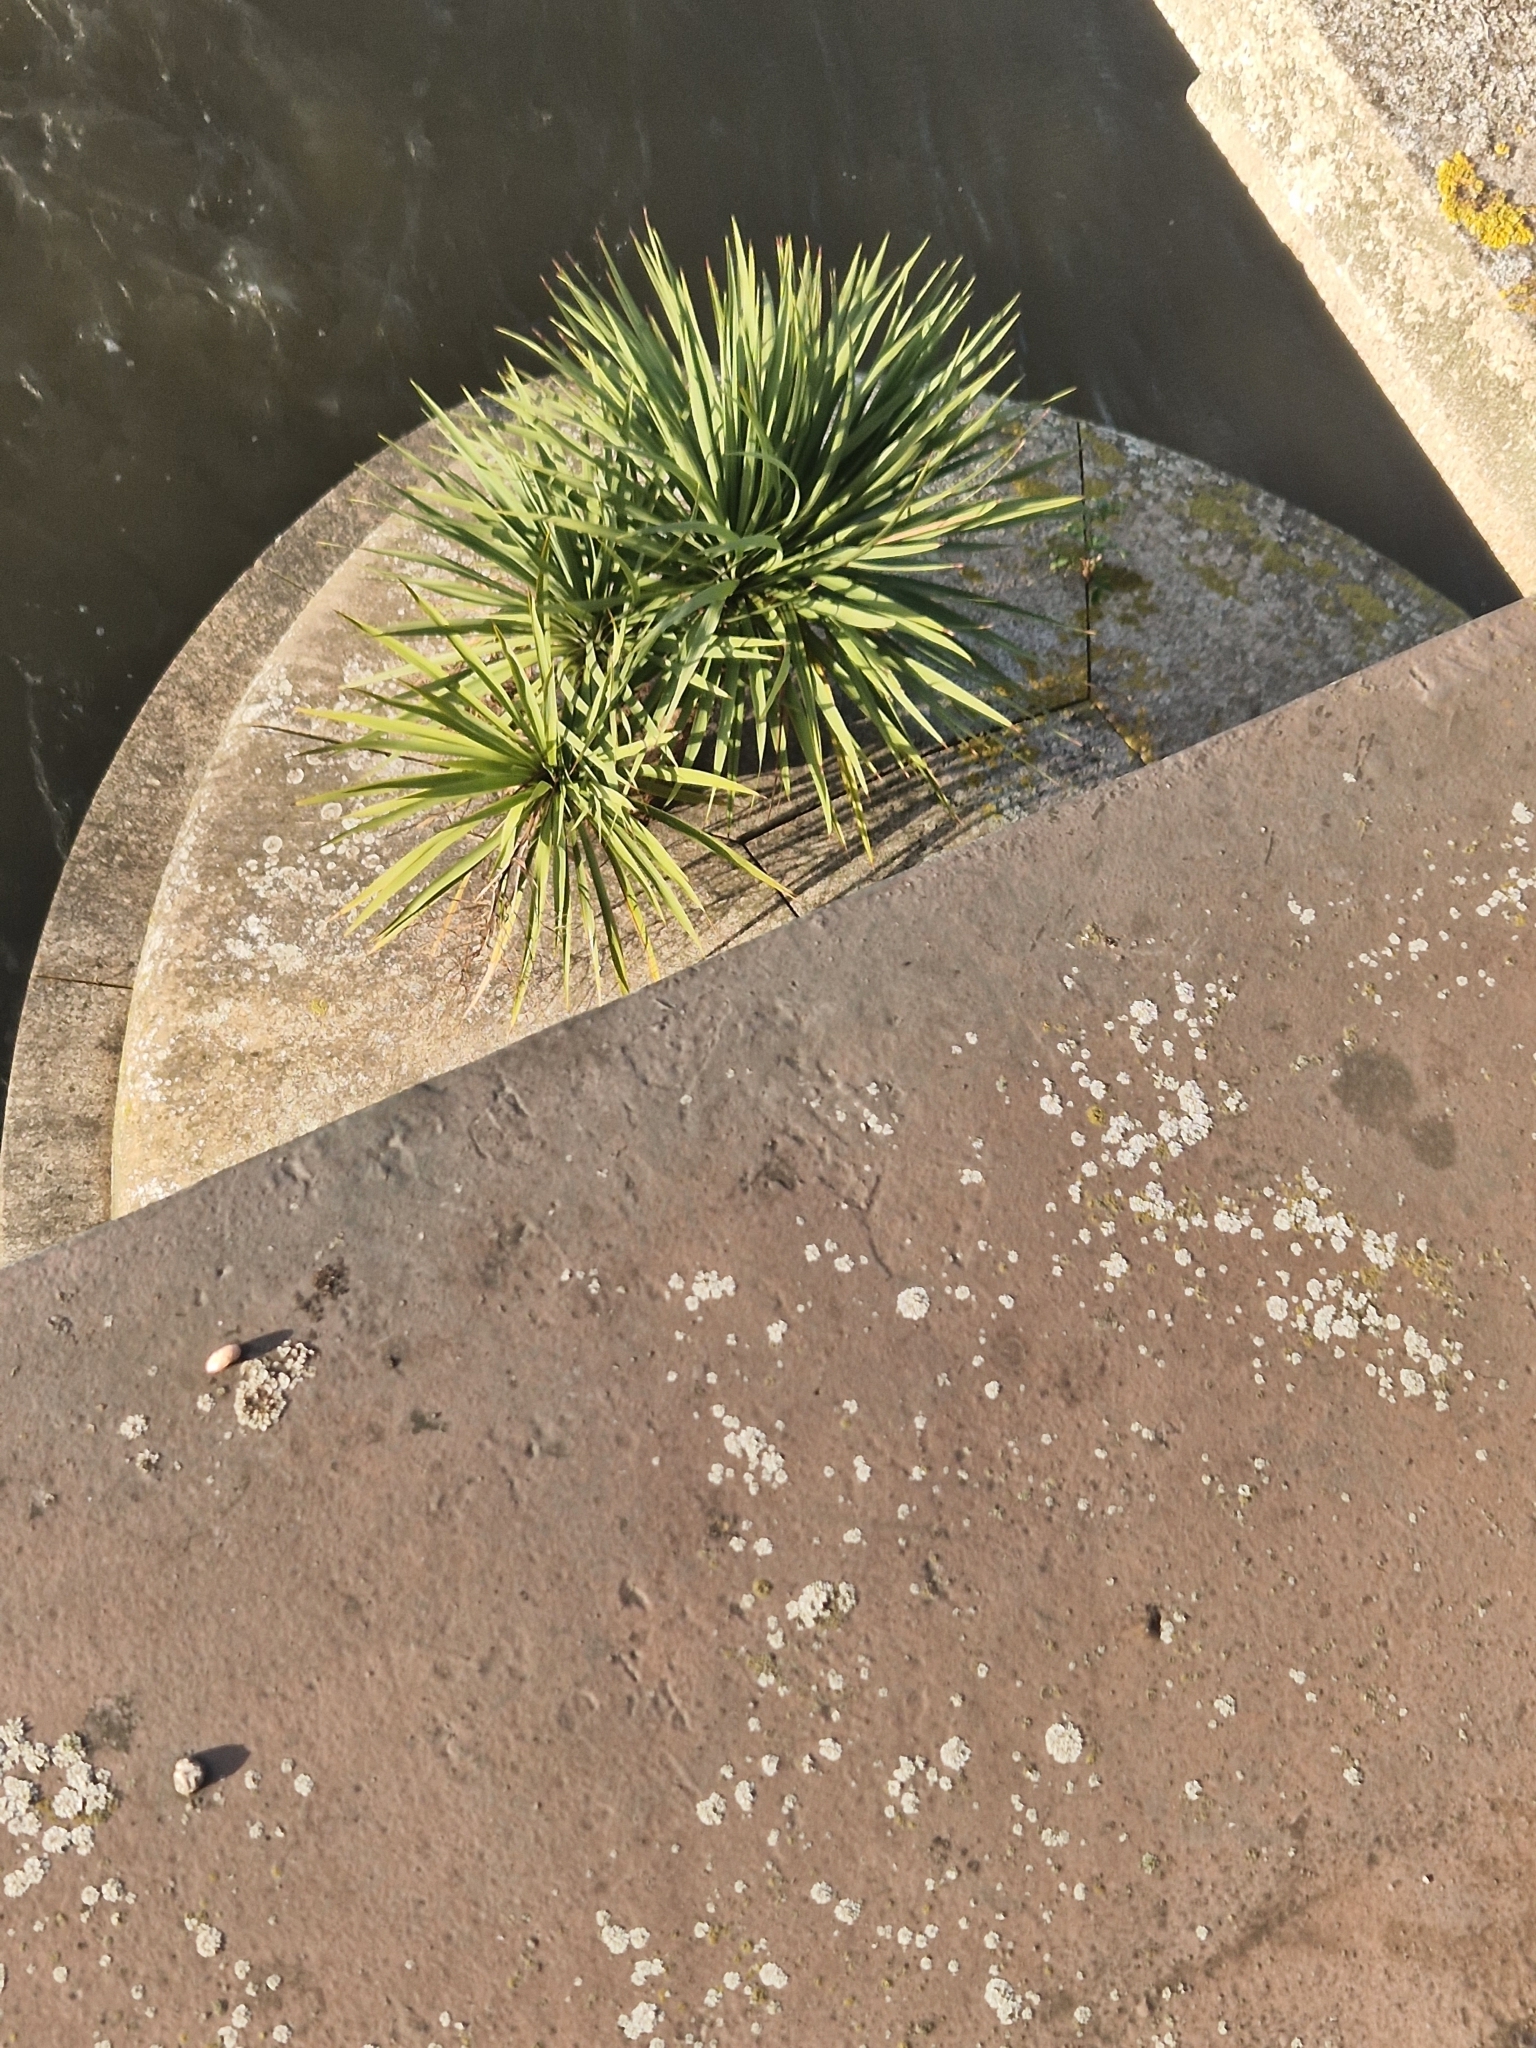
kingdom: Plantae
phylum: Tracheophyta
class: Liliopsida
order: Asparagales
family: Asparagaceae
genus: Cordyline
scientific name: Cordyline australis
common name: Cabbage-palm
